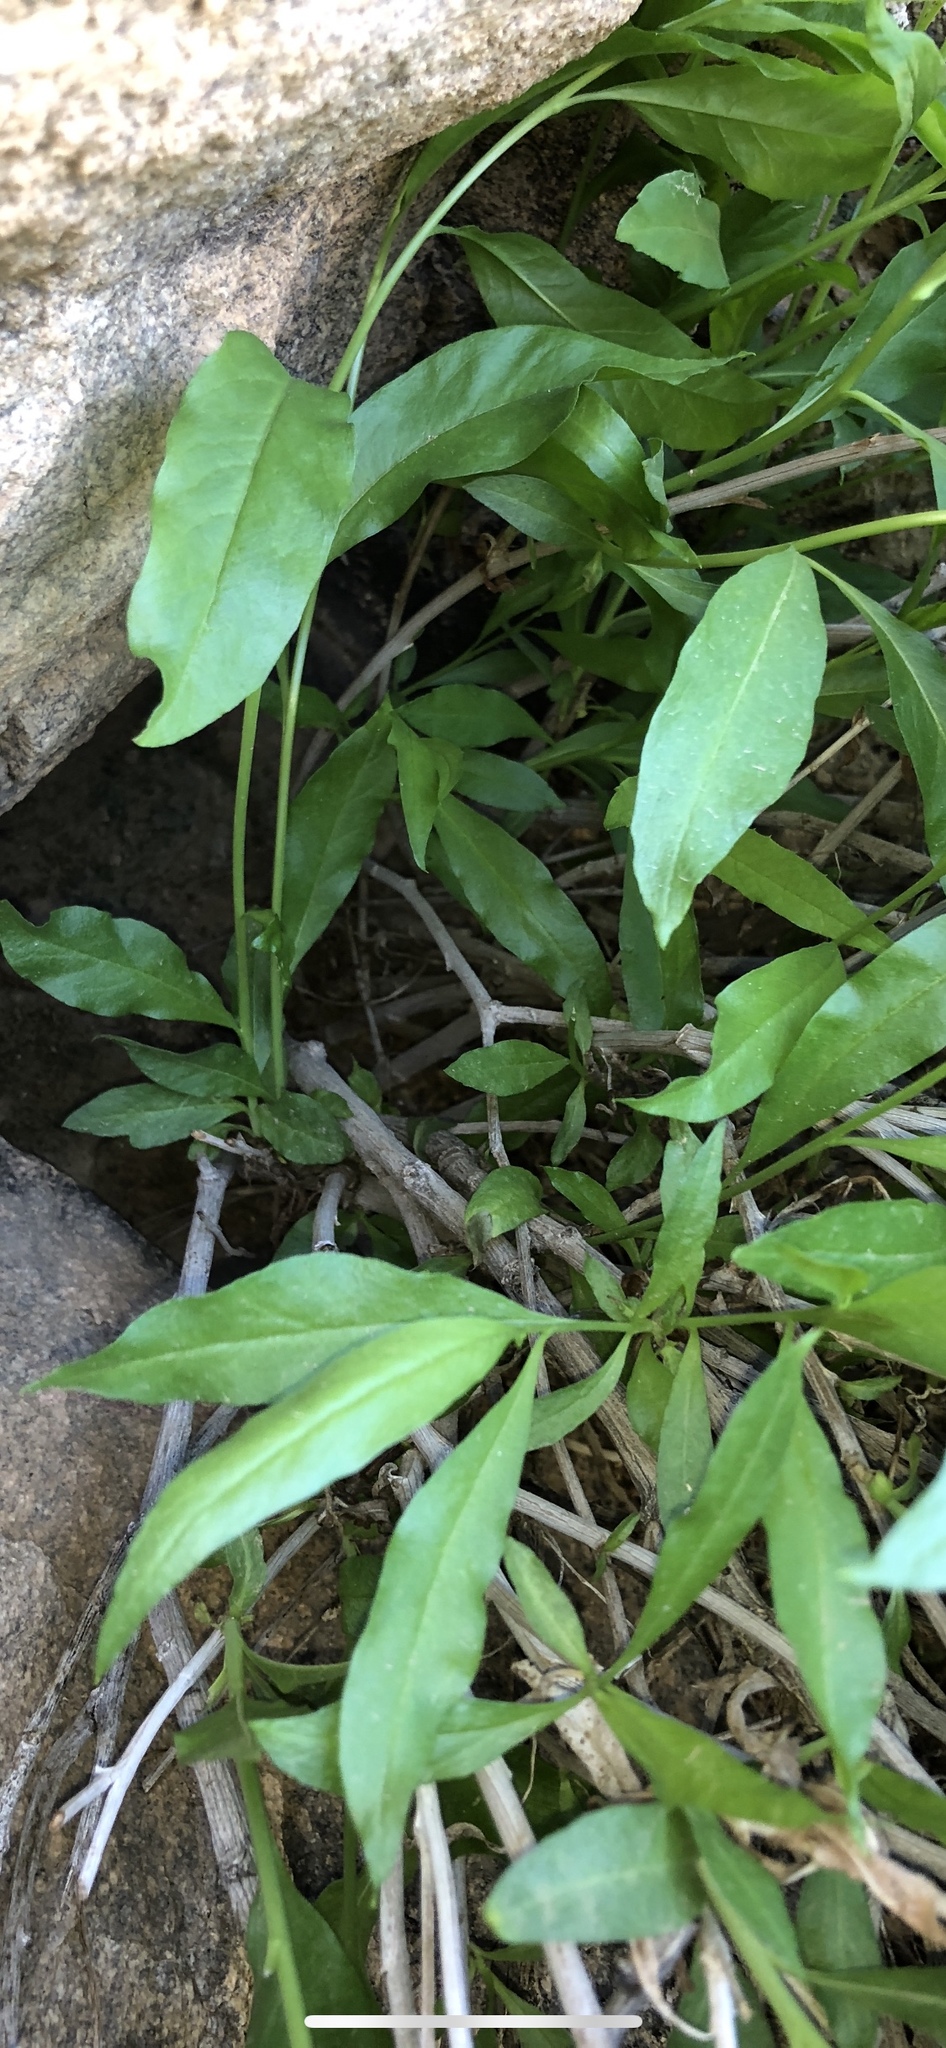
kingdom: Plantae
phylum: Tracheophyta
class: Magnoliopsida
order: Asterales
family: Asteraceae
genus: Trixis
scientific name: Trixis californica
